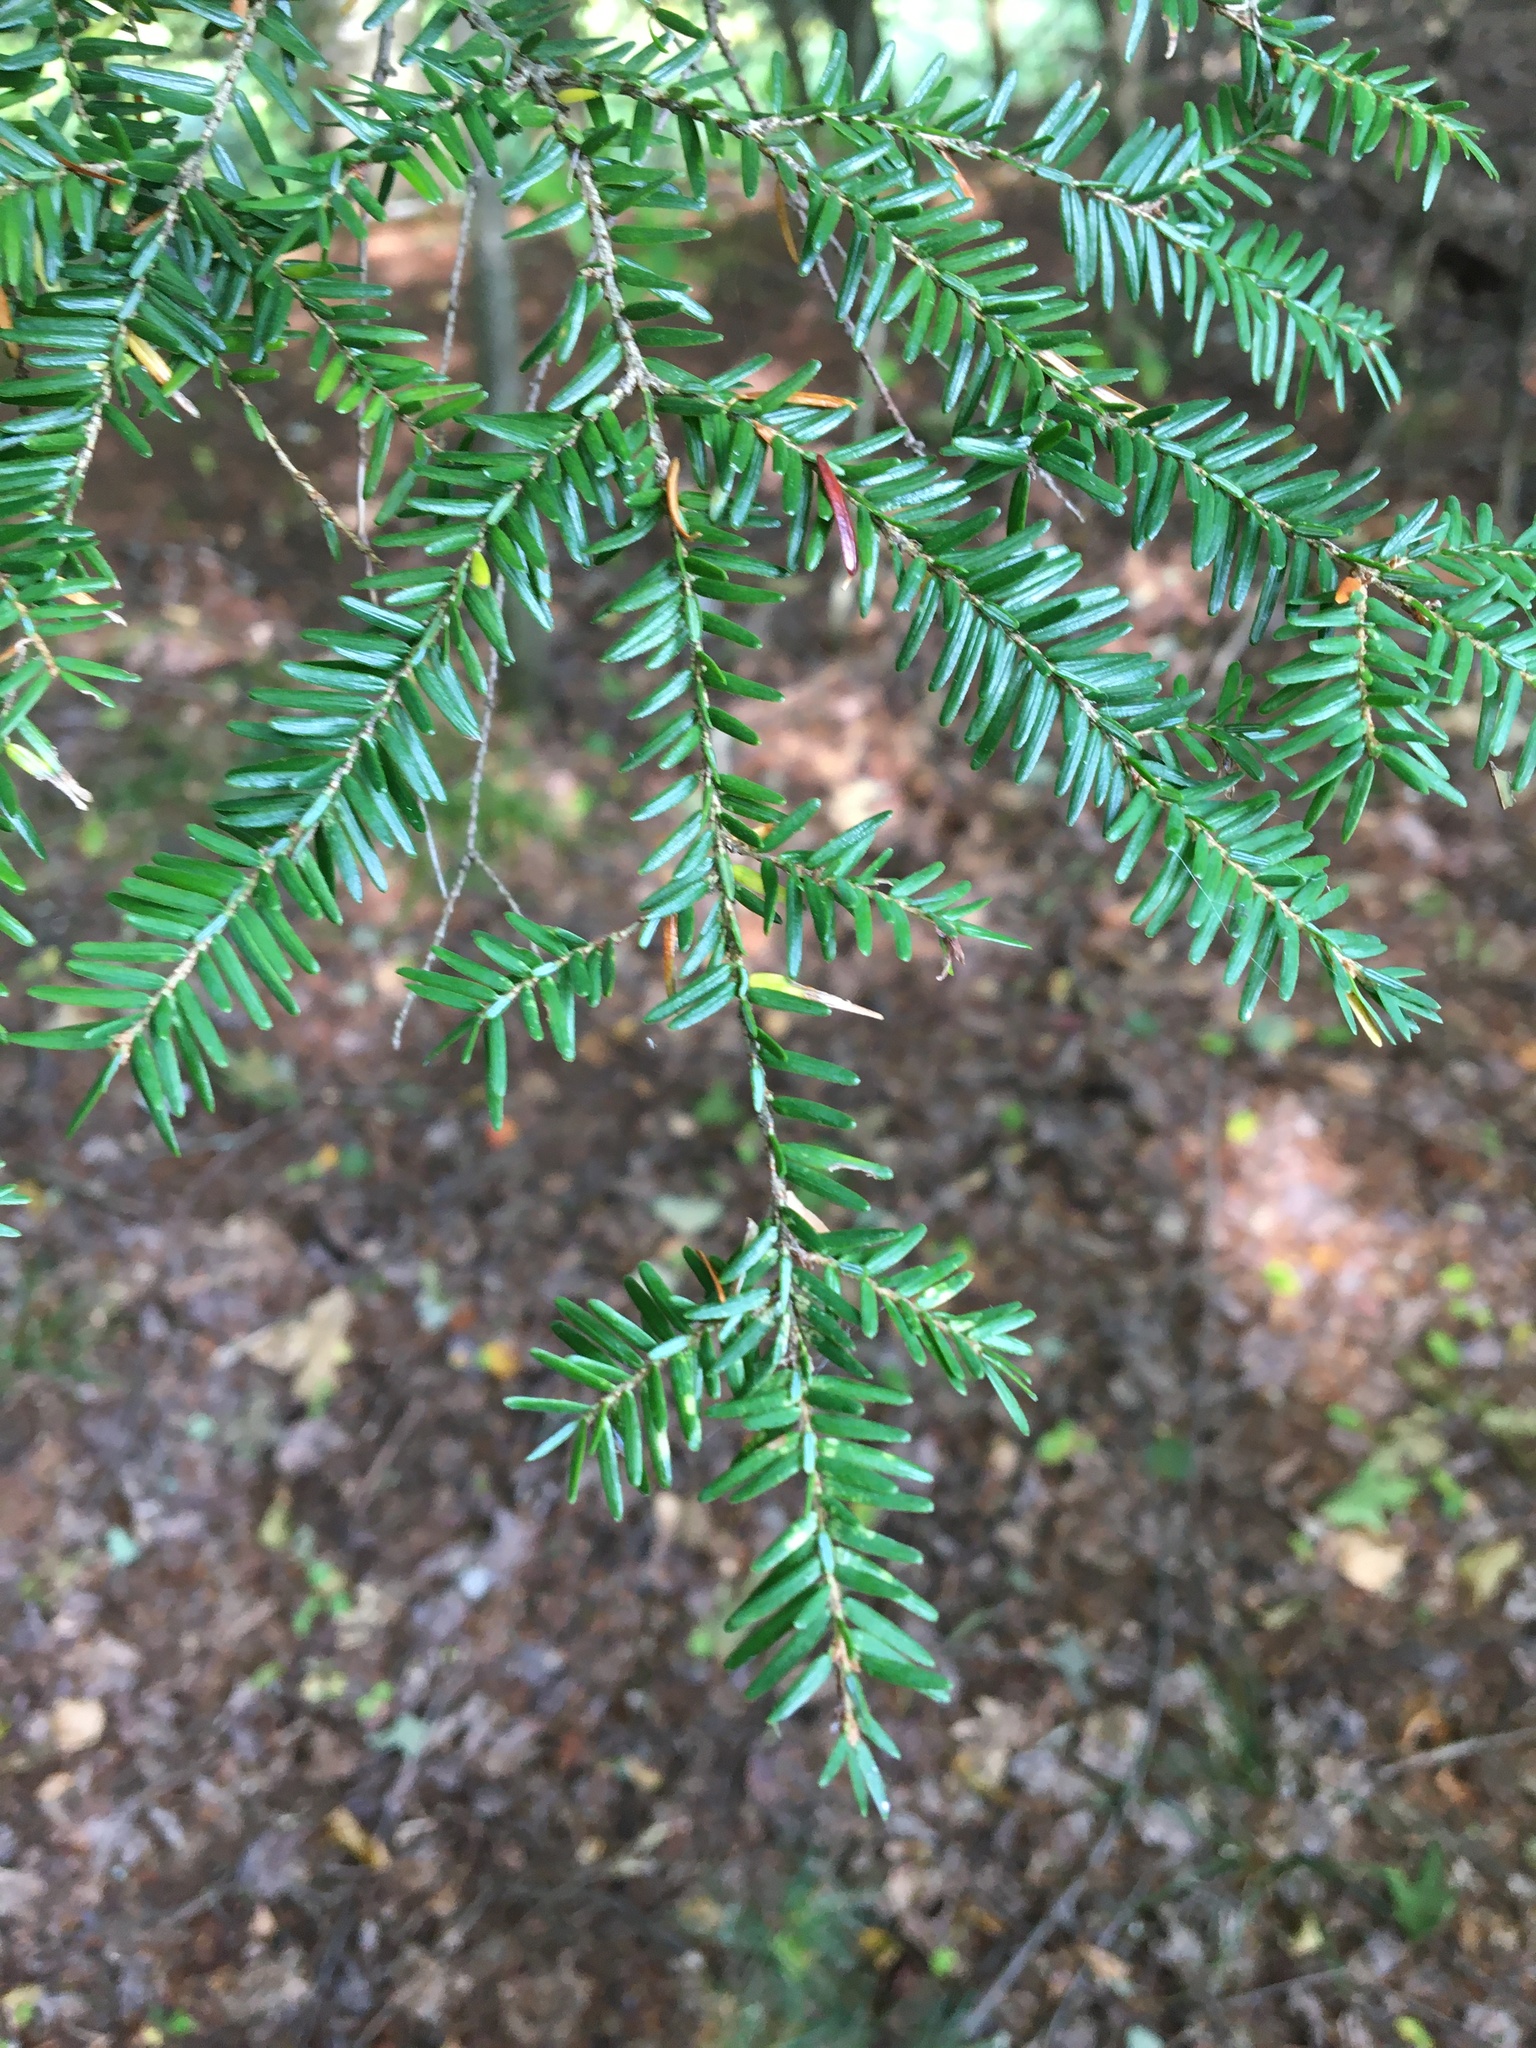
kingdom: Plantae
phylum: Tracheophyta
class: Pinopsida
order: Pinales
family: Pinaceae
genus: Tsuga
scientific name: Tsuga canadensis
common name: Eastern hemlock
